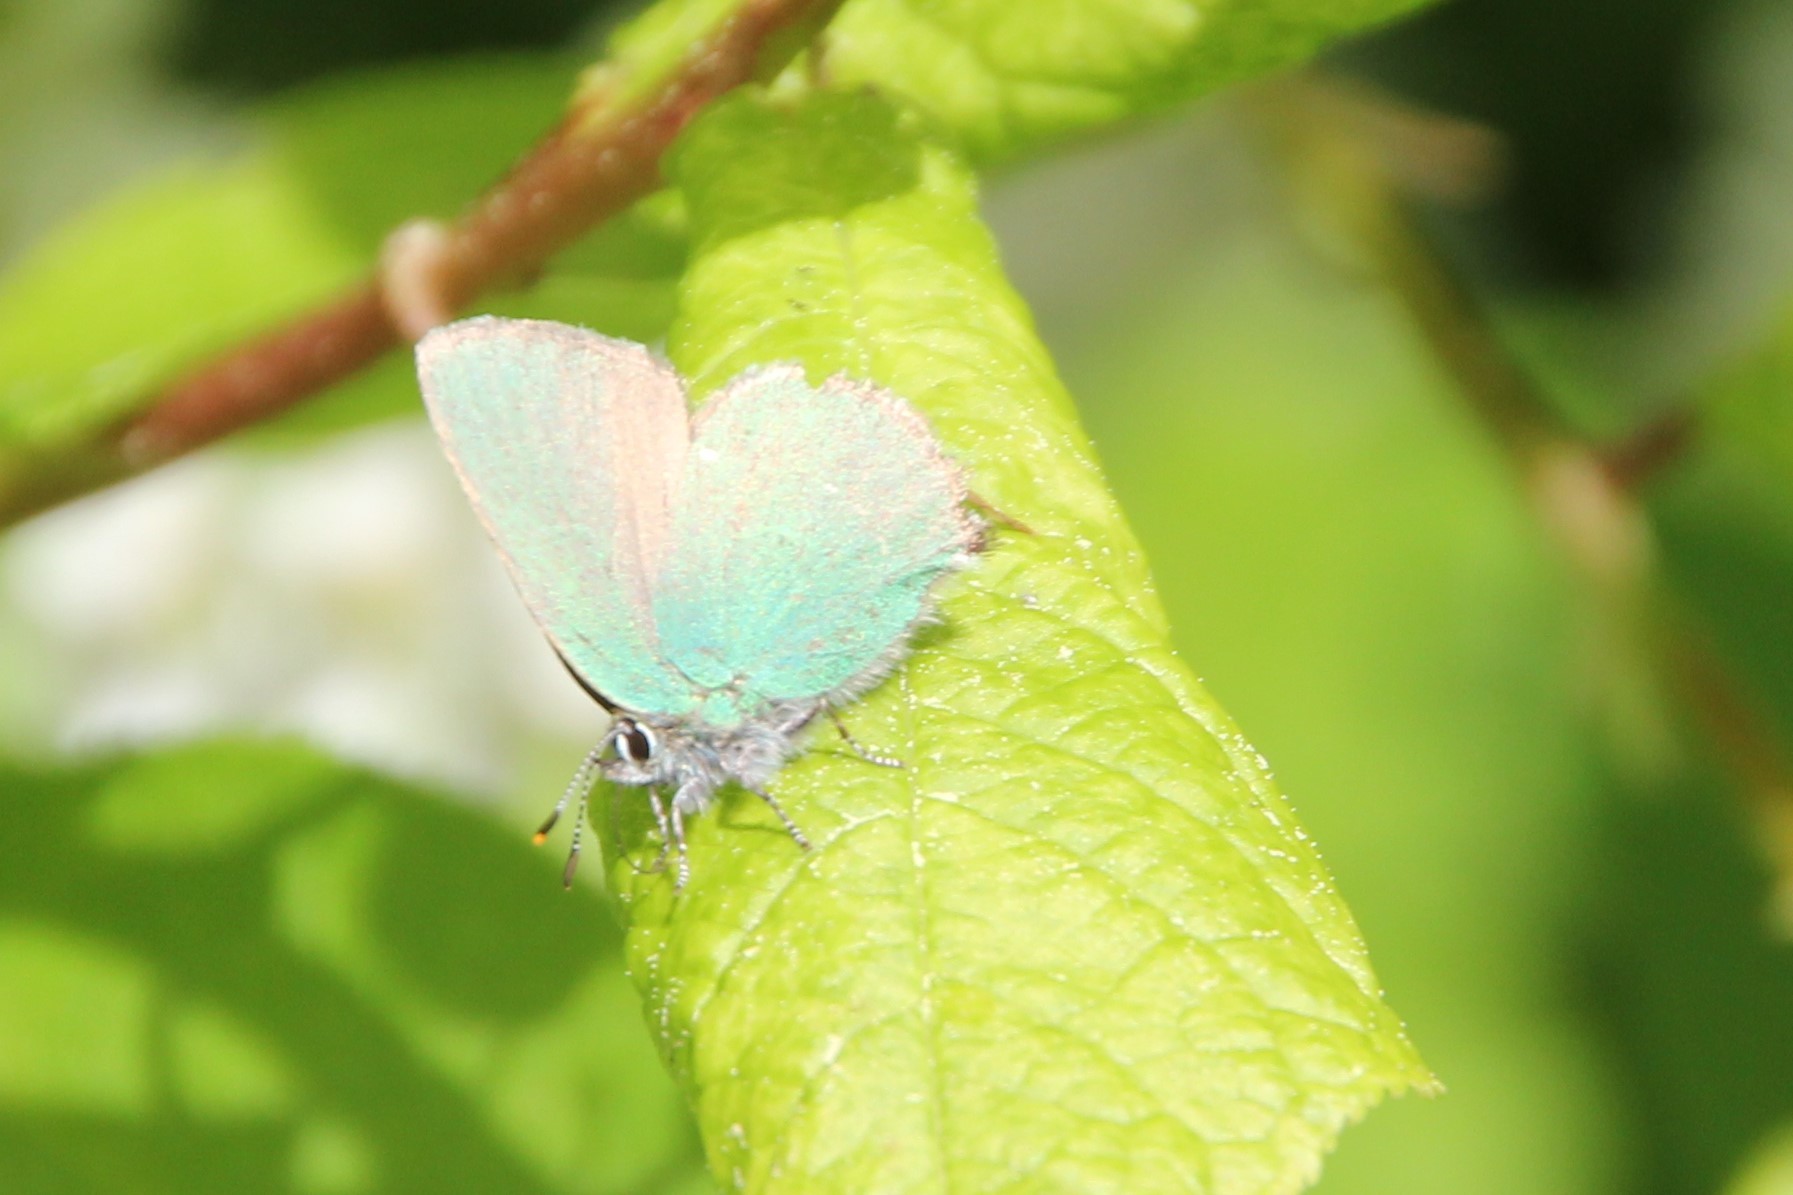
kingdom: Animalia
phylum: Arthropoda
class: Insecta
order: Lepidoptera
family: Lycaenidae
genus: Callophrys
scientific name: Callophrys rubi
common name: Green hairstreak
